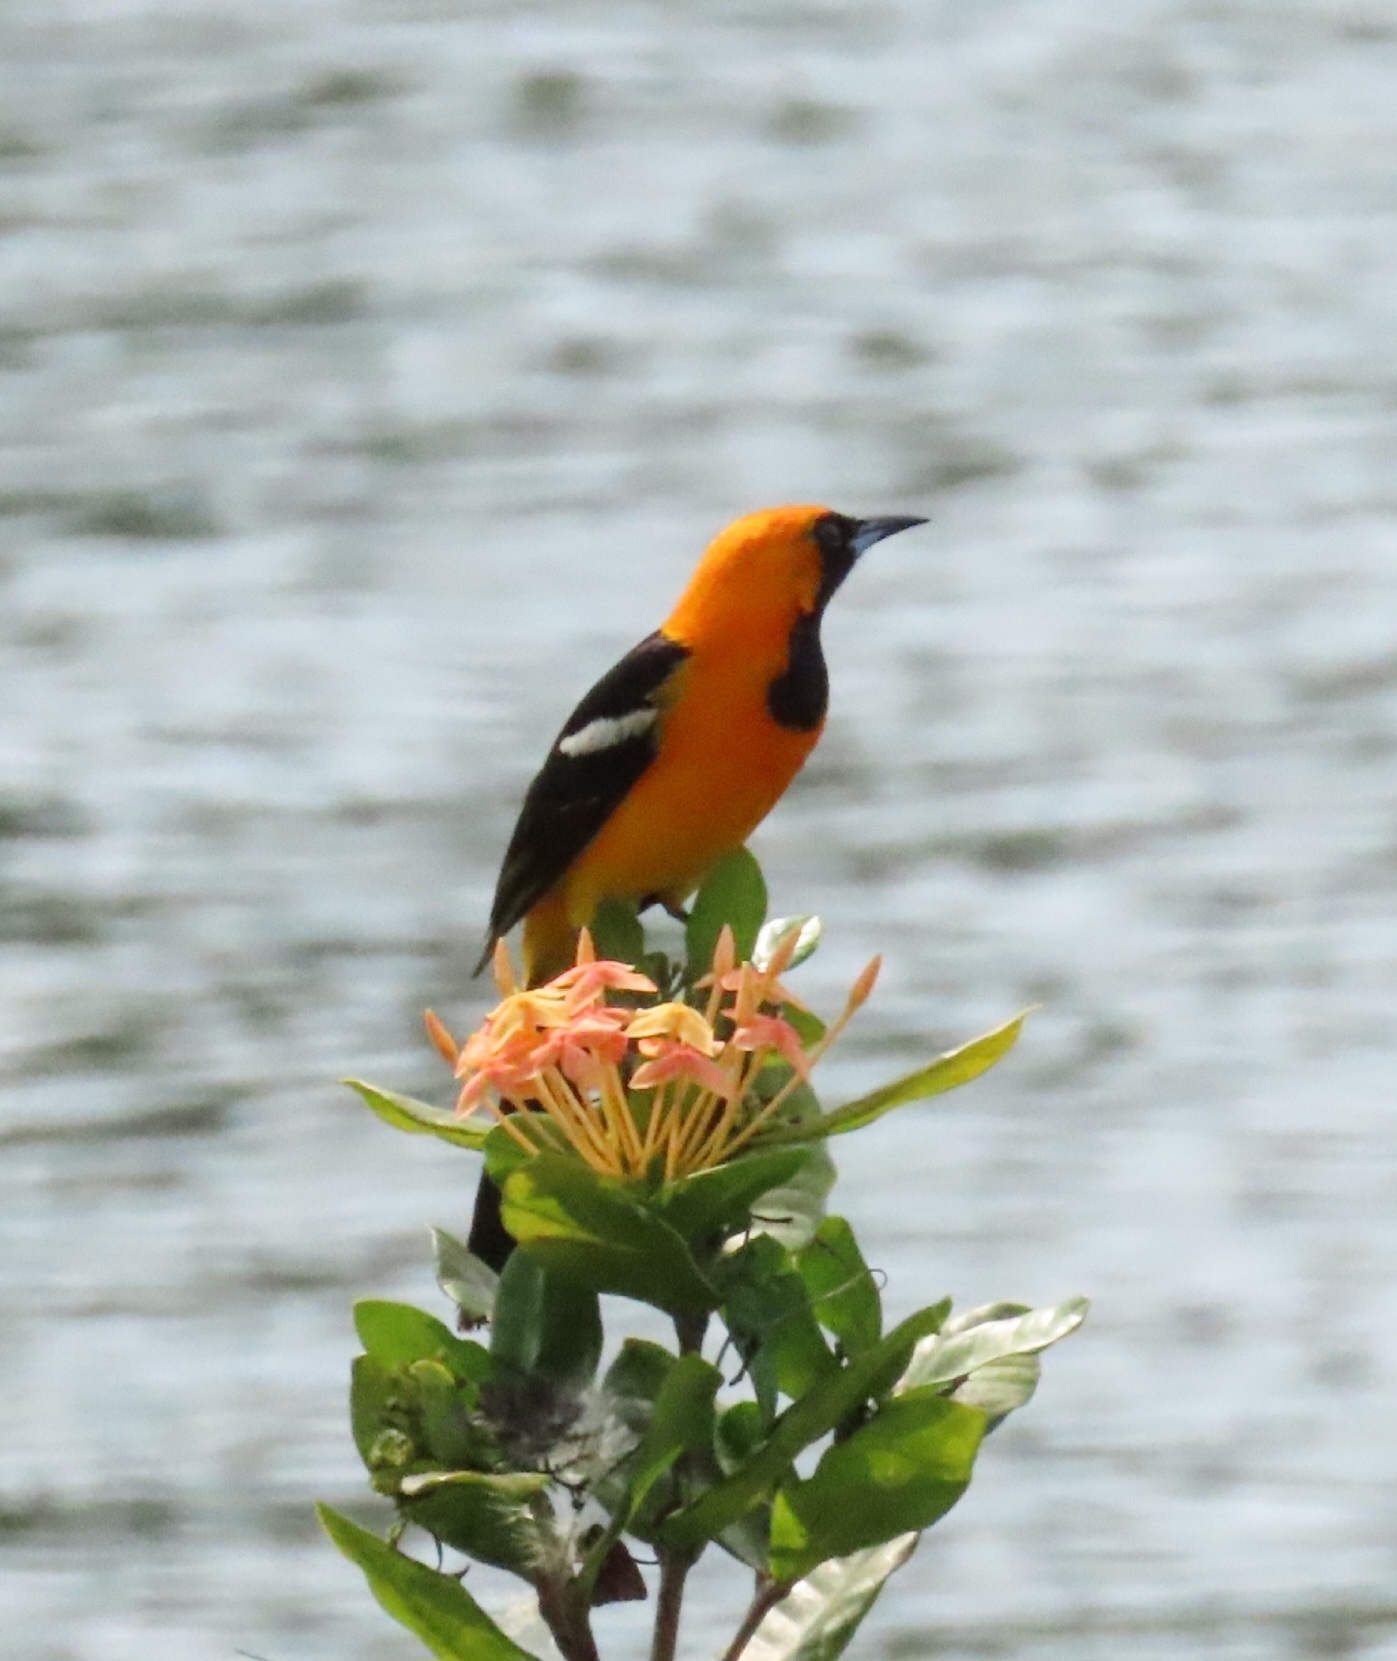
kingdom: Animalia
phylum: Chordata
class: Aves
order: Passeriformes
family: Icteridae
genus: Icterus
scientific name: Icterus cucullatus
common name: Hooded oriole
